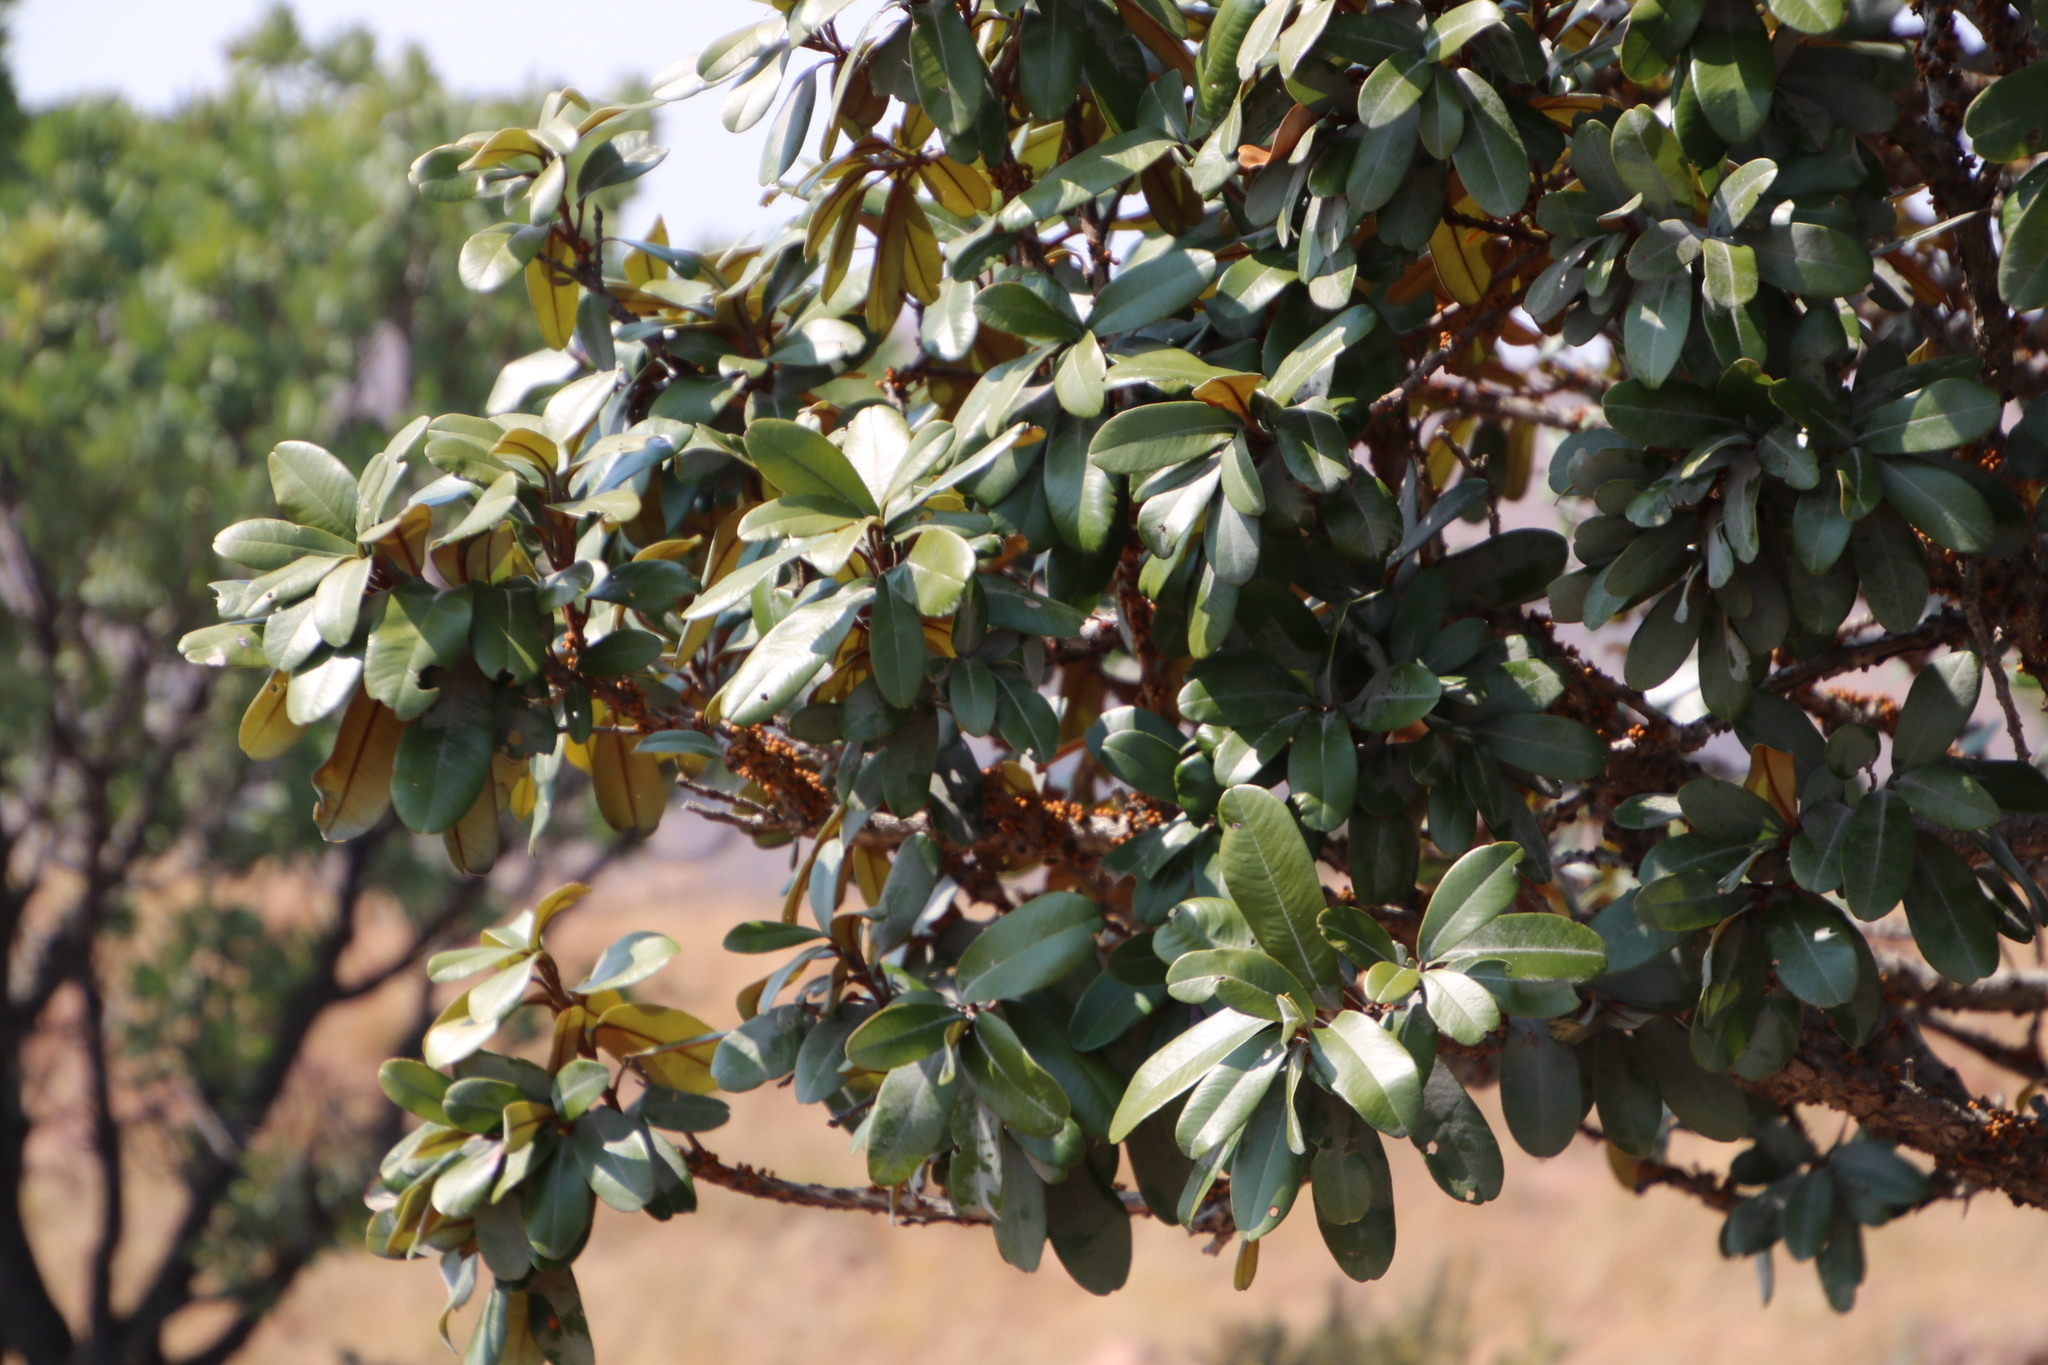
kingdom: Plantae
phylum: Tracheophyta
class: Magnoliopsida
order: Ericales
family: Sapotaceae
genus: Englerophytum
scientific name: Englerophytum magalismontanum
